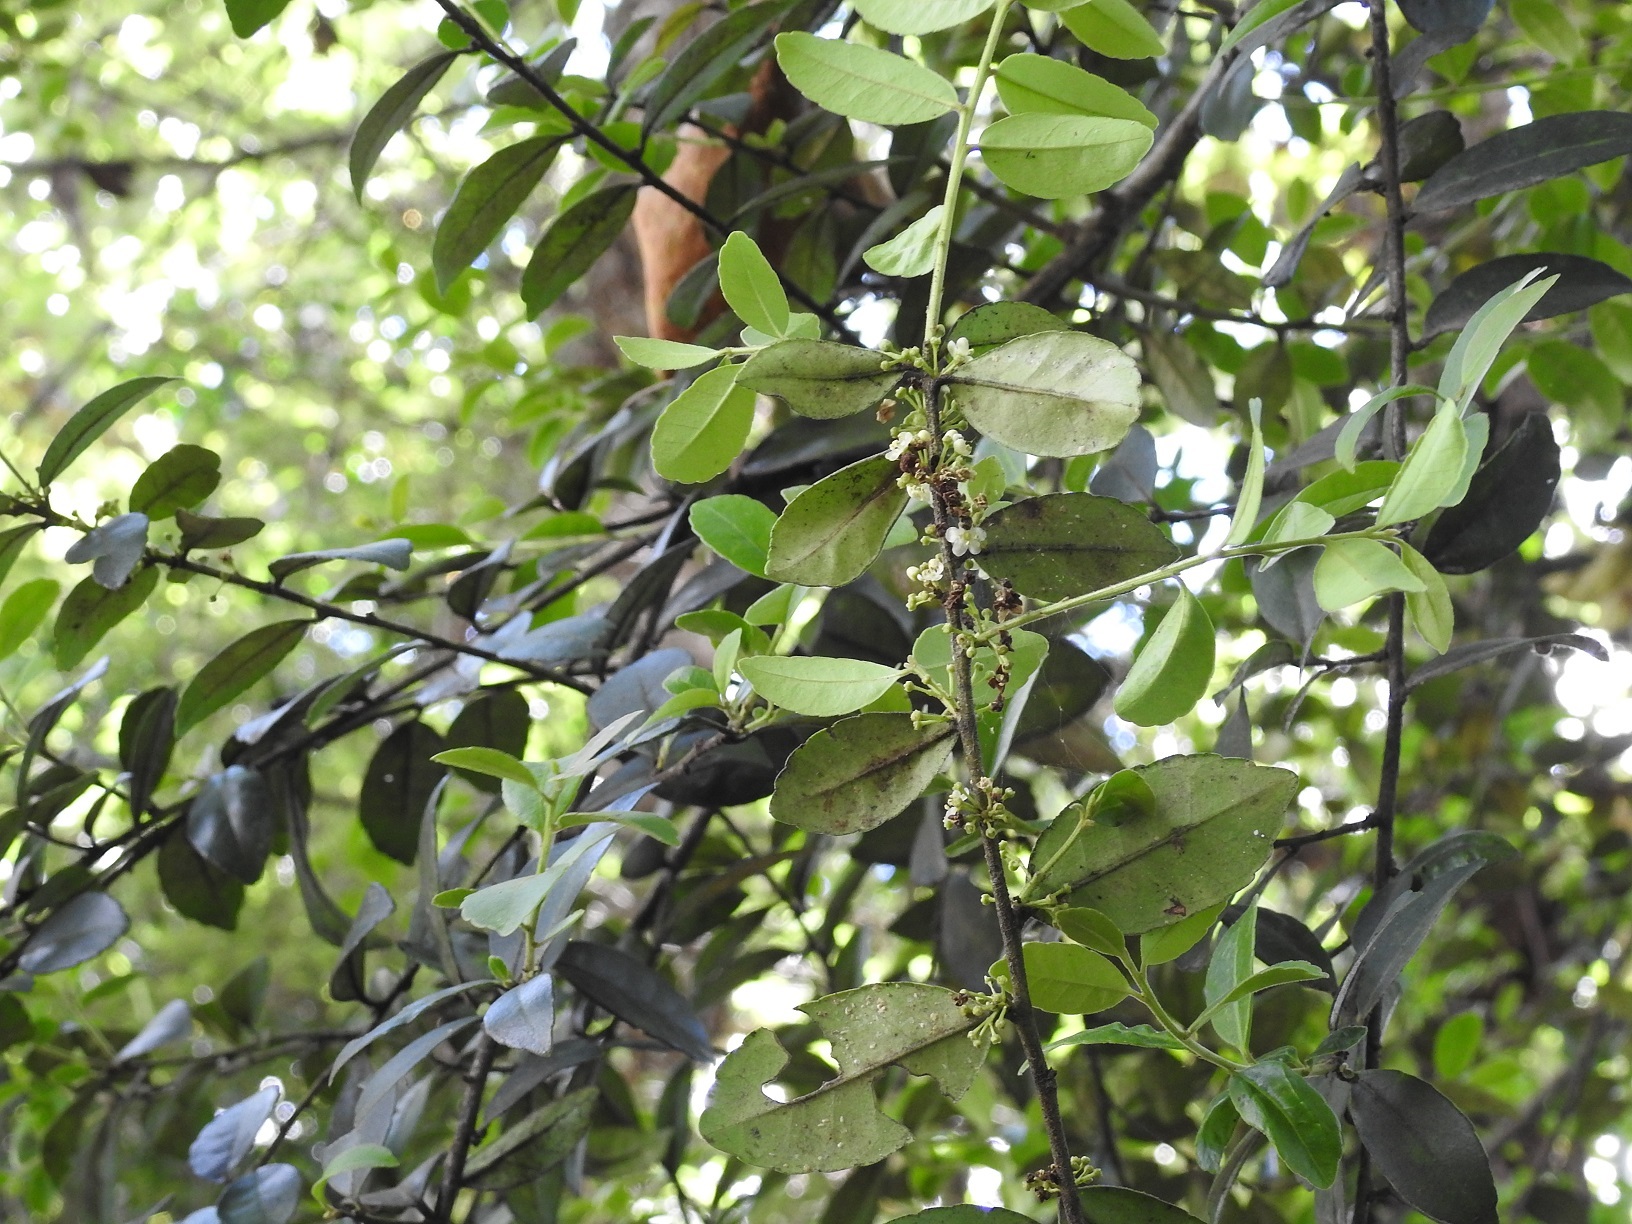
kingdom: Plantae
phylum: Tracheophyta
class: Magnoliopsida
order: Aquifoliales
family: Aquifoliaceae
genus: Ilex
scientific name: Ilex discolor
